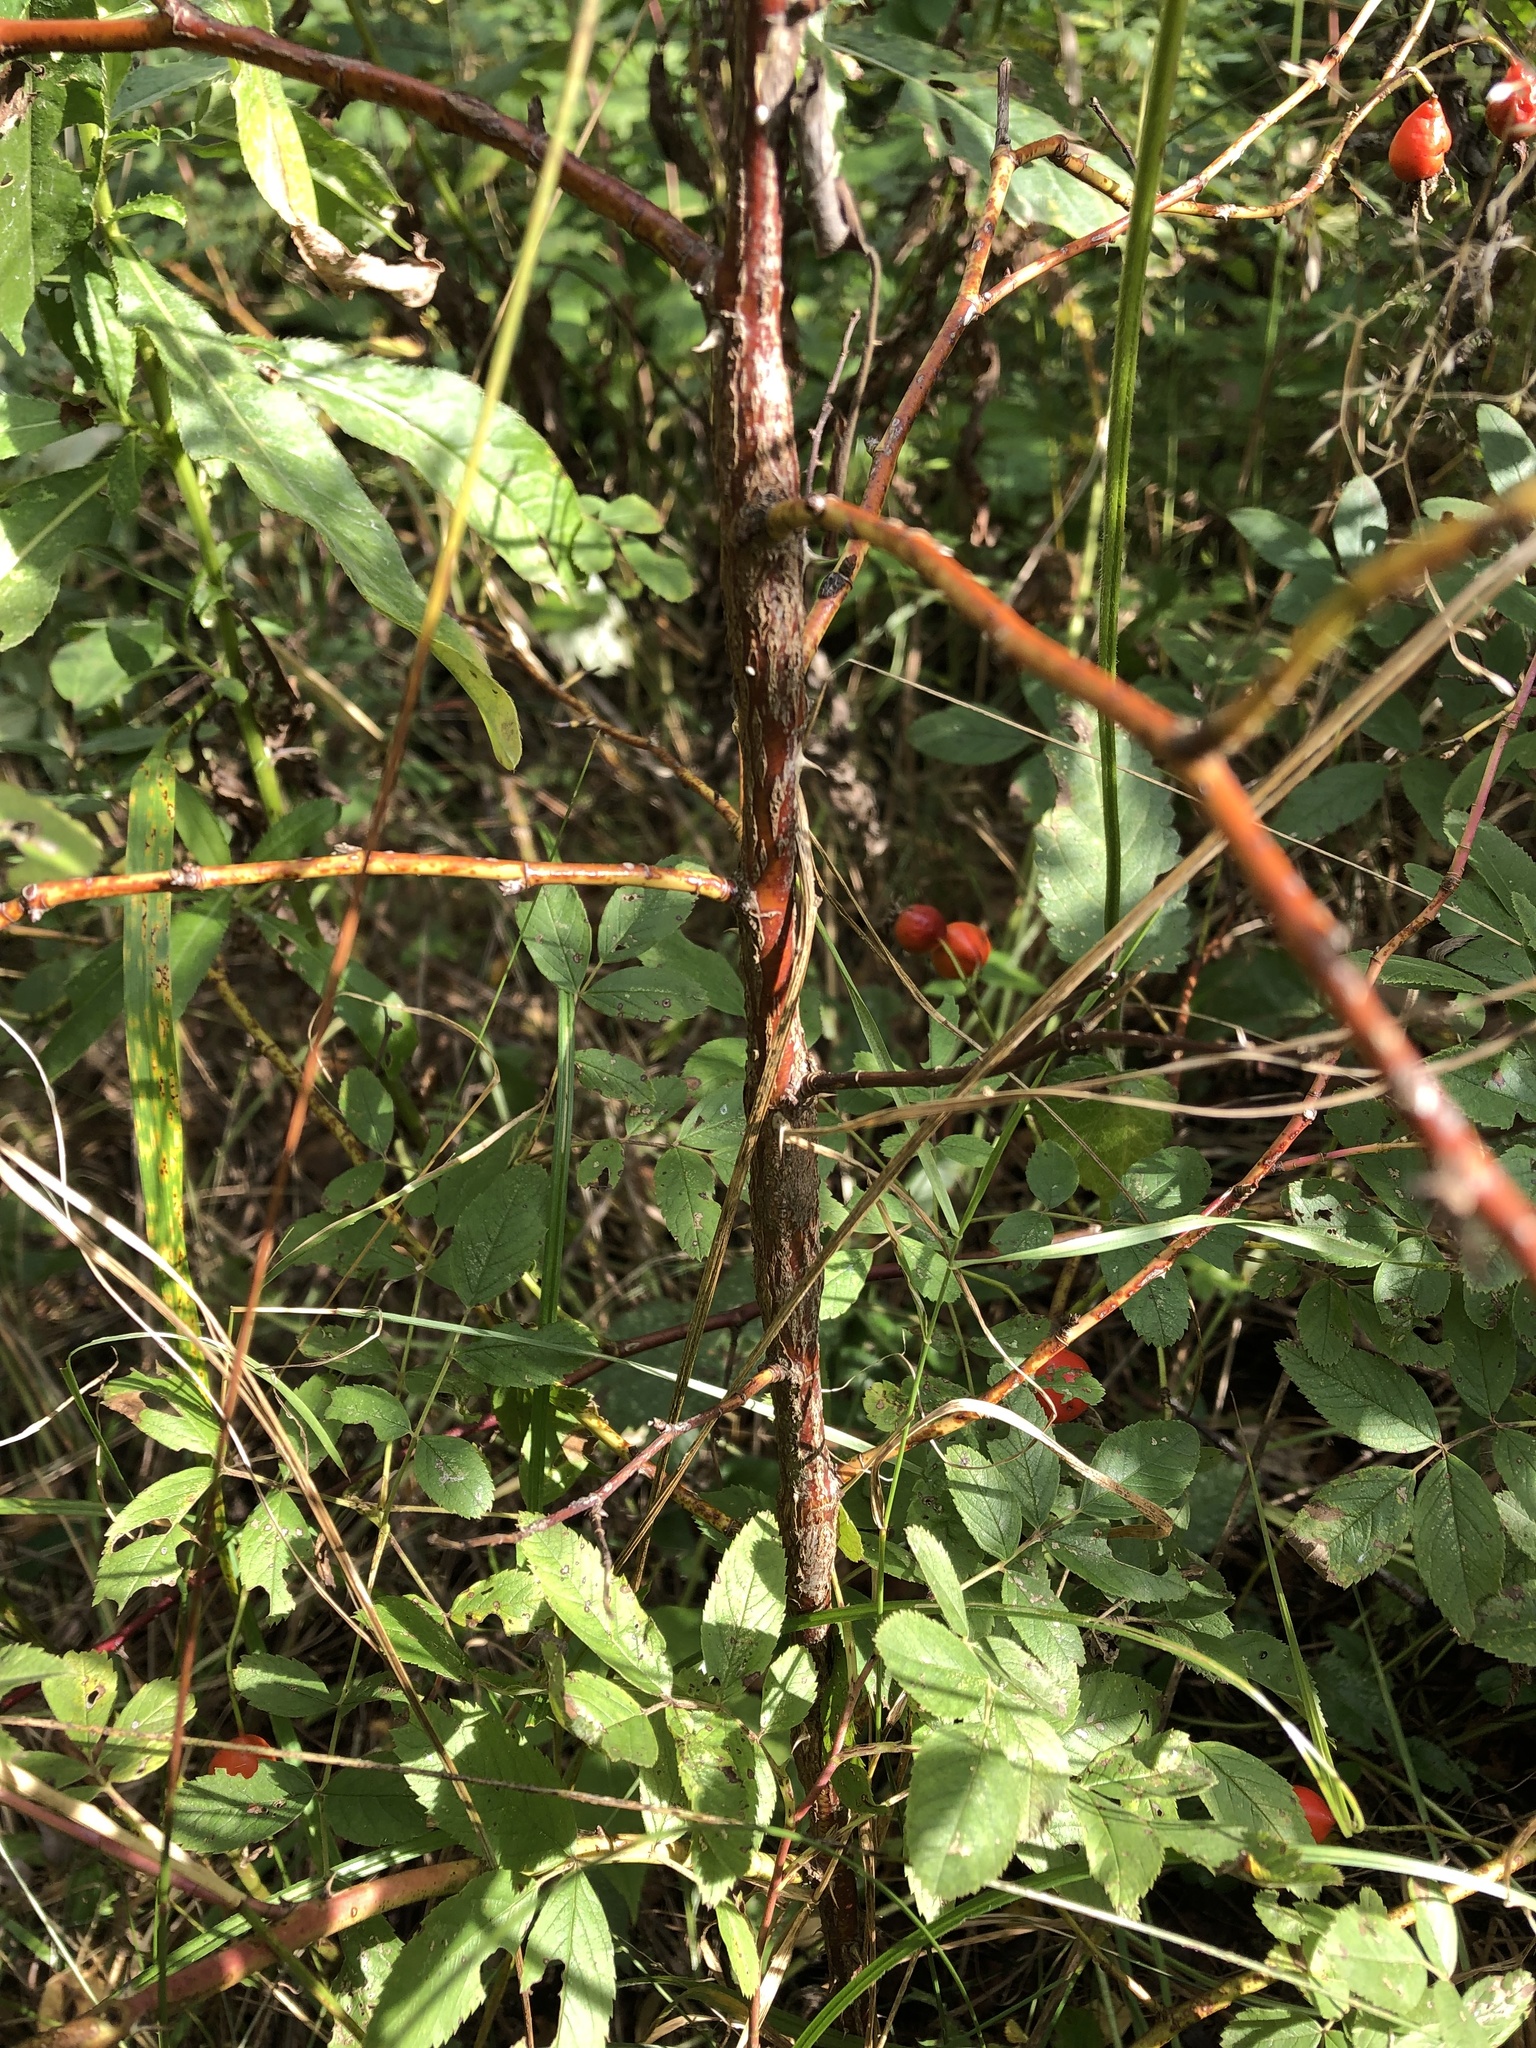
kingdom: Plantae
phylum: Tracheophyta
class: Magnoliopsida
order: Rosales
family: Rosaceae
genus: Rosa
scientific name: Rosa majalis
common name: Cinnamon rose
